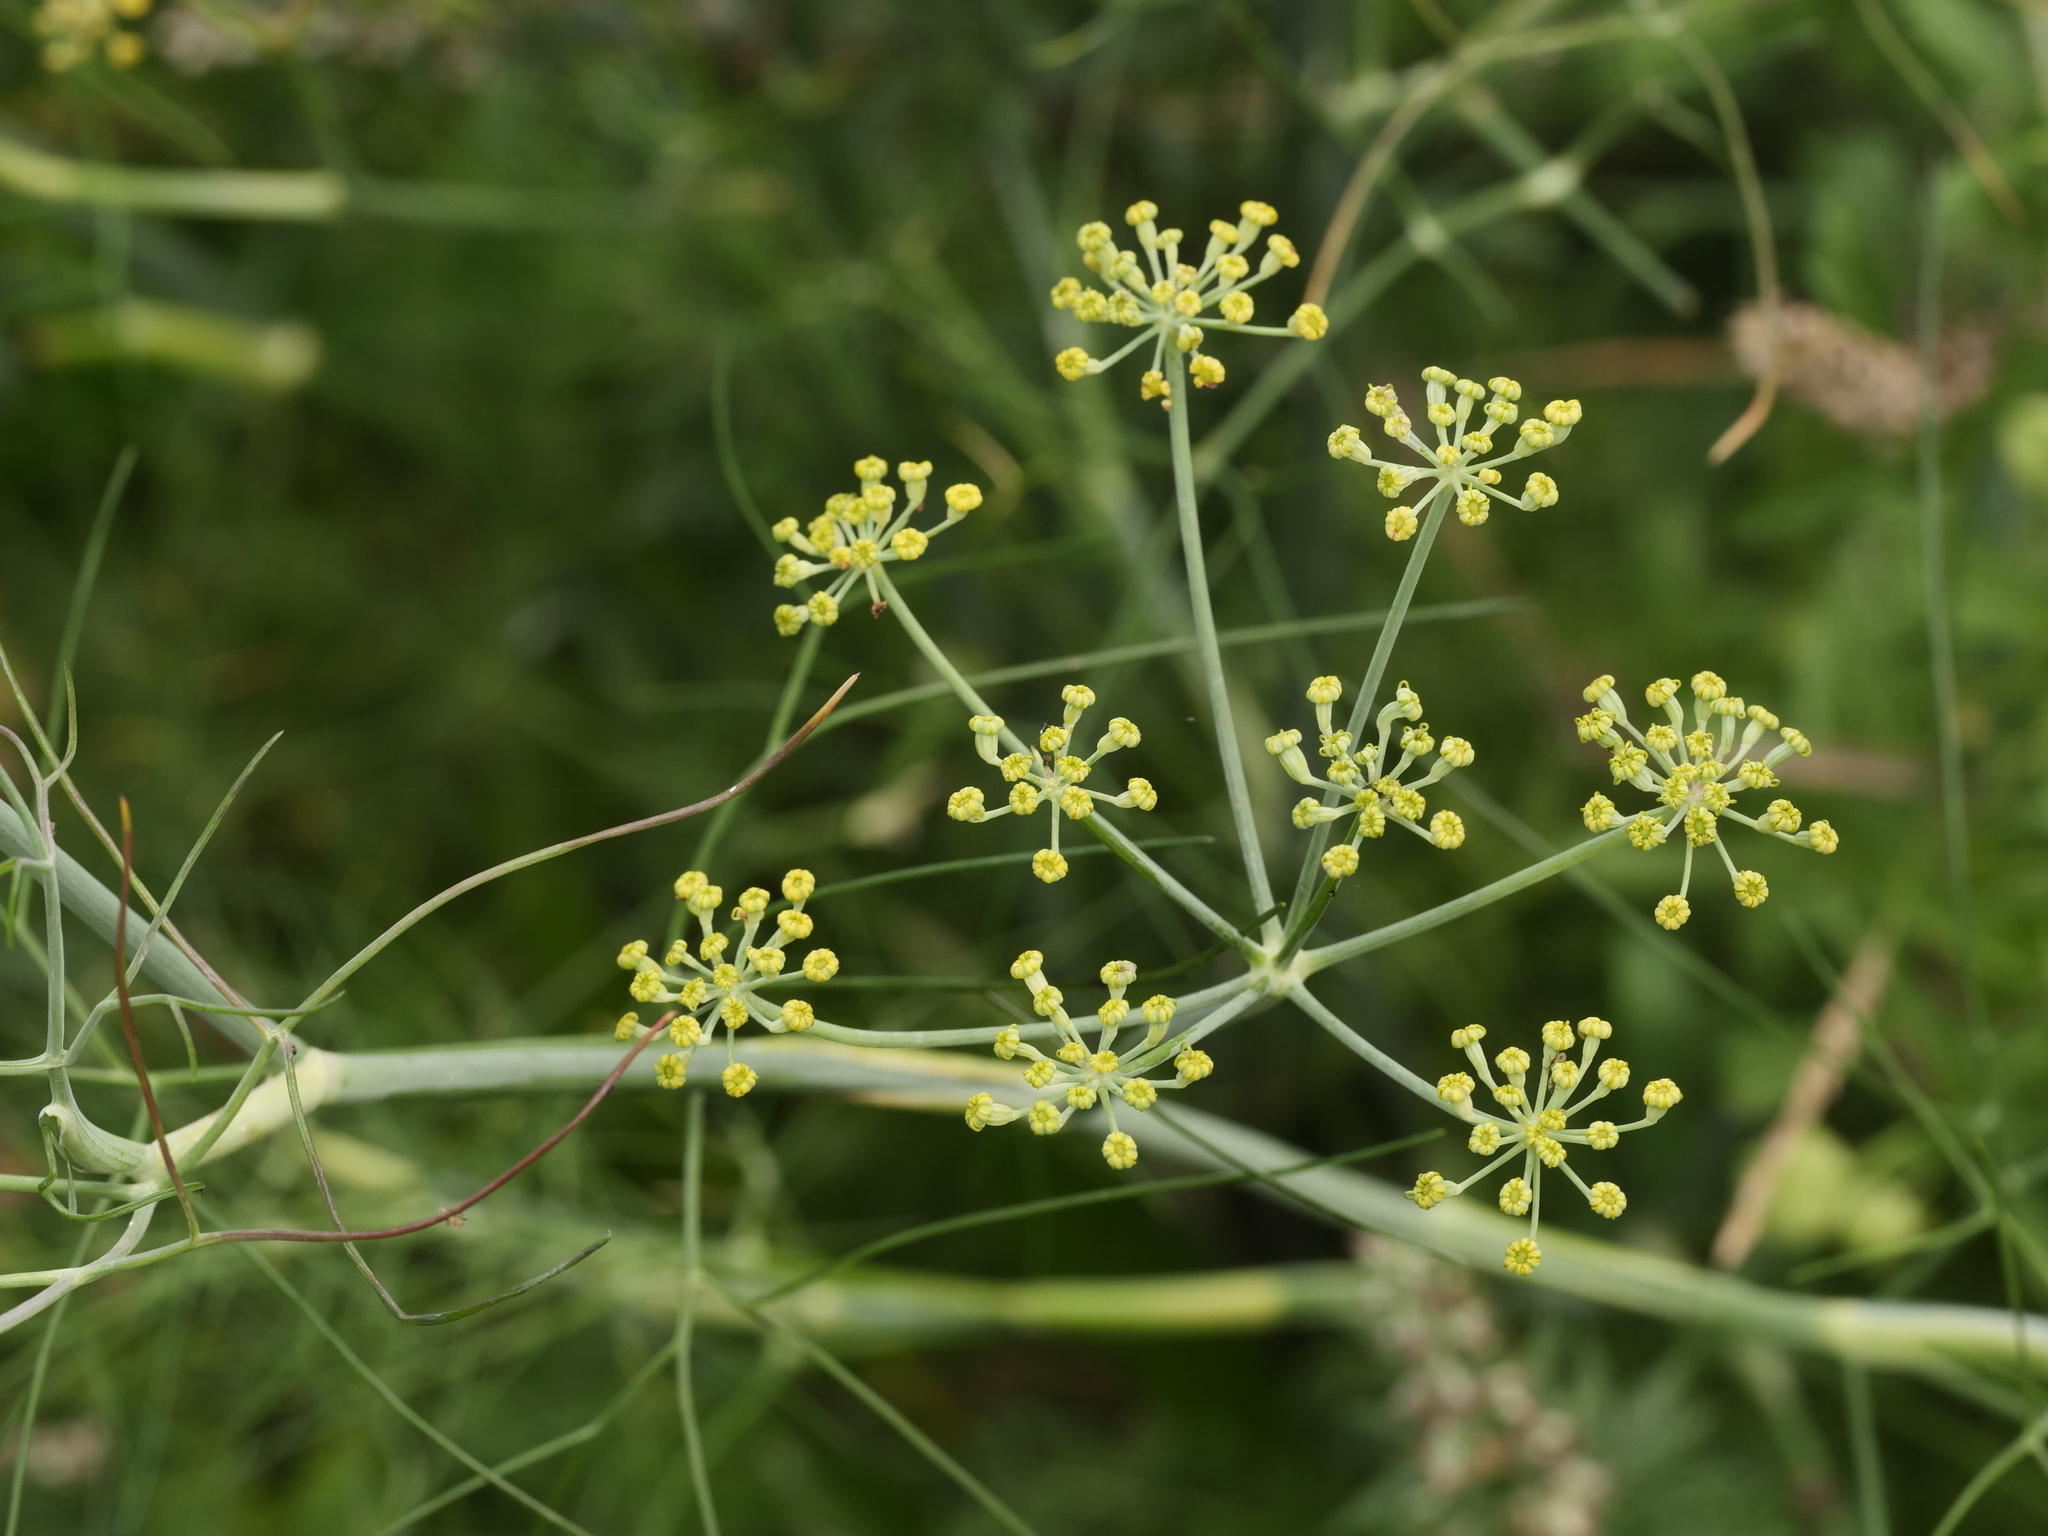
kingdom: Plantae
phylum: Tracheophyta
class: Magnoliopsida
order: Apiales
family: Apiaceae
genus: Foeniculum
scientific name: Foeniculum vulgare
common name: Fennel
